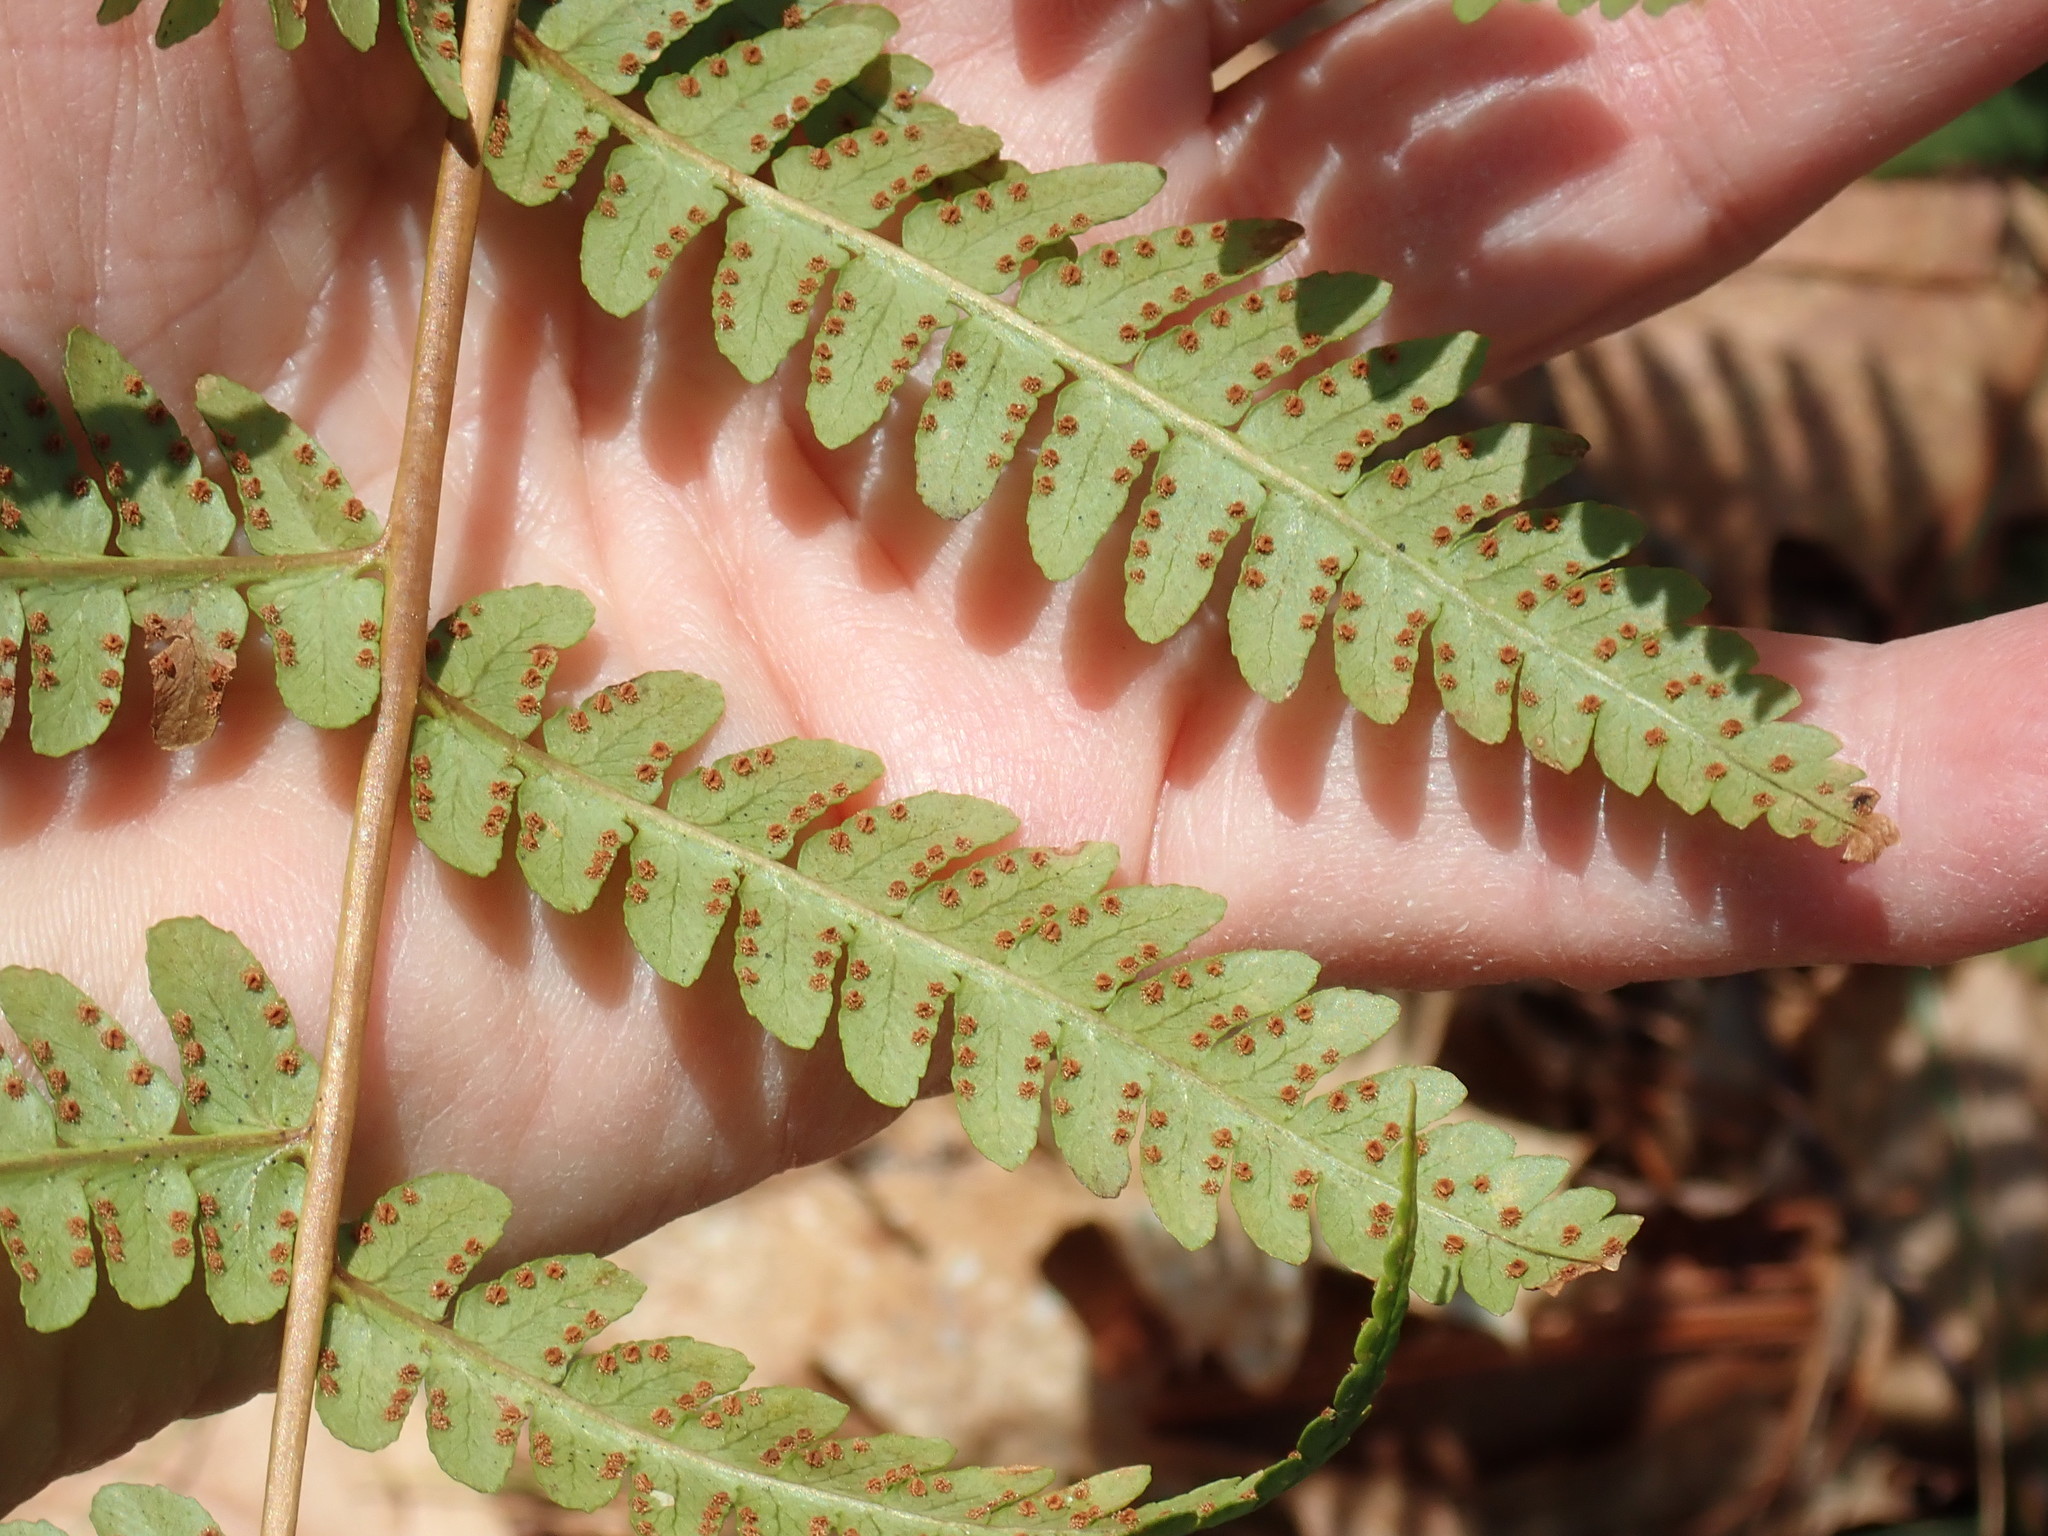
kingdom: Plantae
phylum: Tracheophyta
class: Polypodiopsida
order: Polypodiales
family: Dryopteridaceae
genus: Dryopteris
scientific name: Dryopteris marginalis
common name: Marginal wood fern
